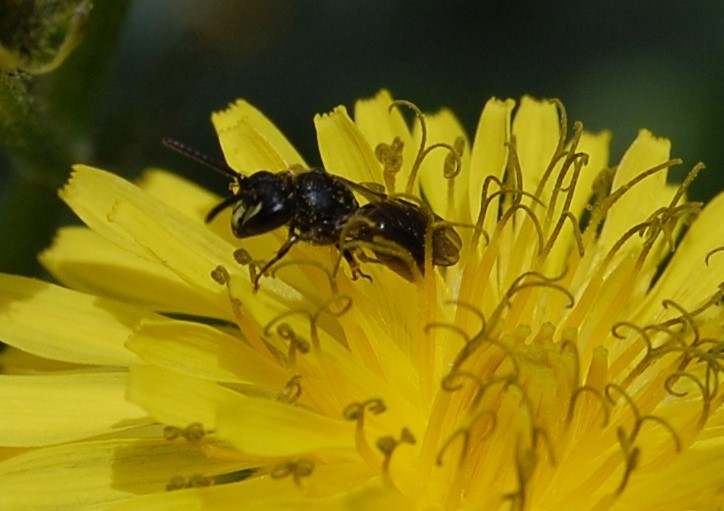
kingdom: Animalia
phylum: Arthropoda
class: Insecta
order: Hymenoptera
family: Colletidae
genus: Hylaeus
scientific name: Hylaeus communis
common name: Common yellow-face bee
